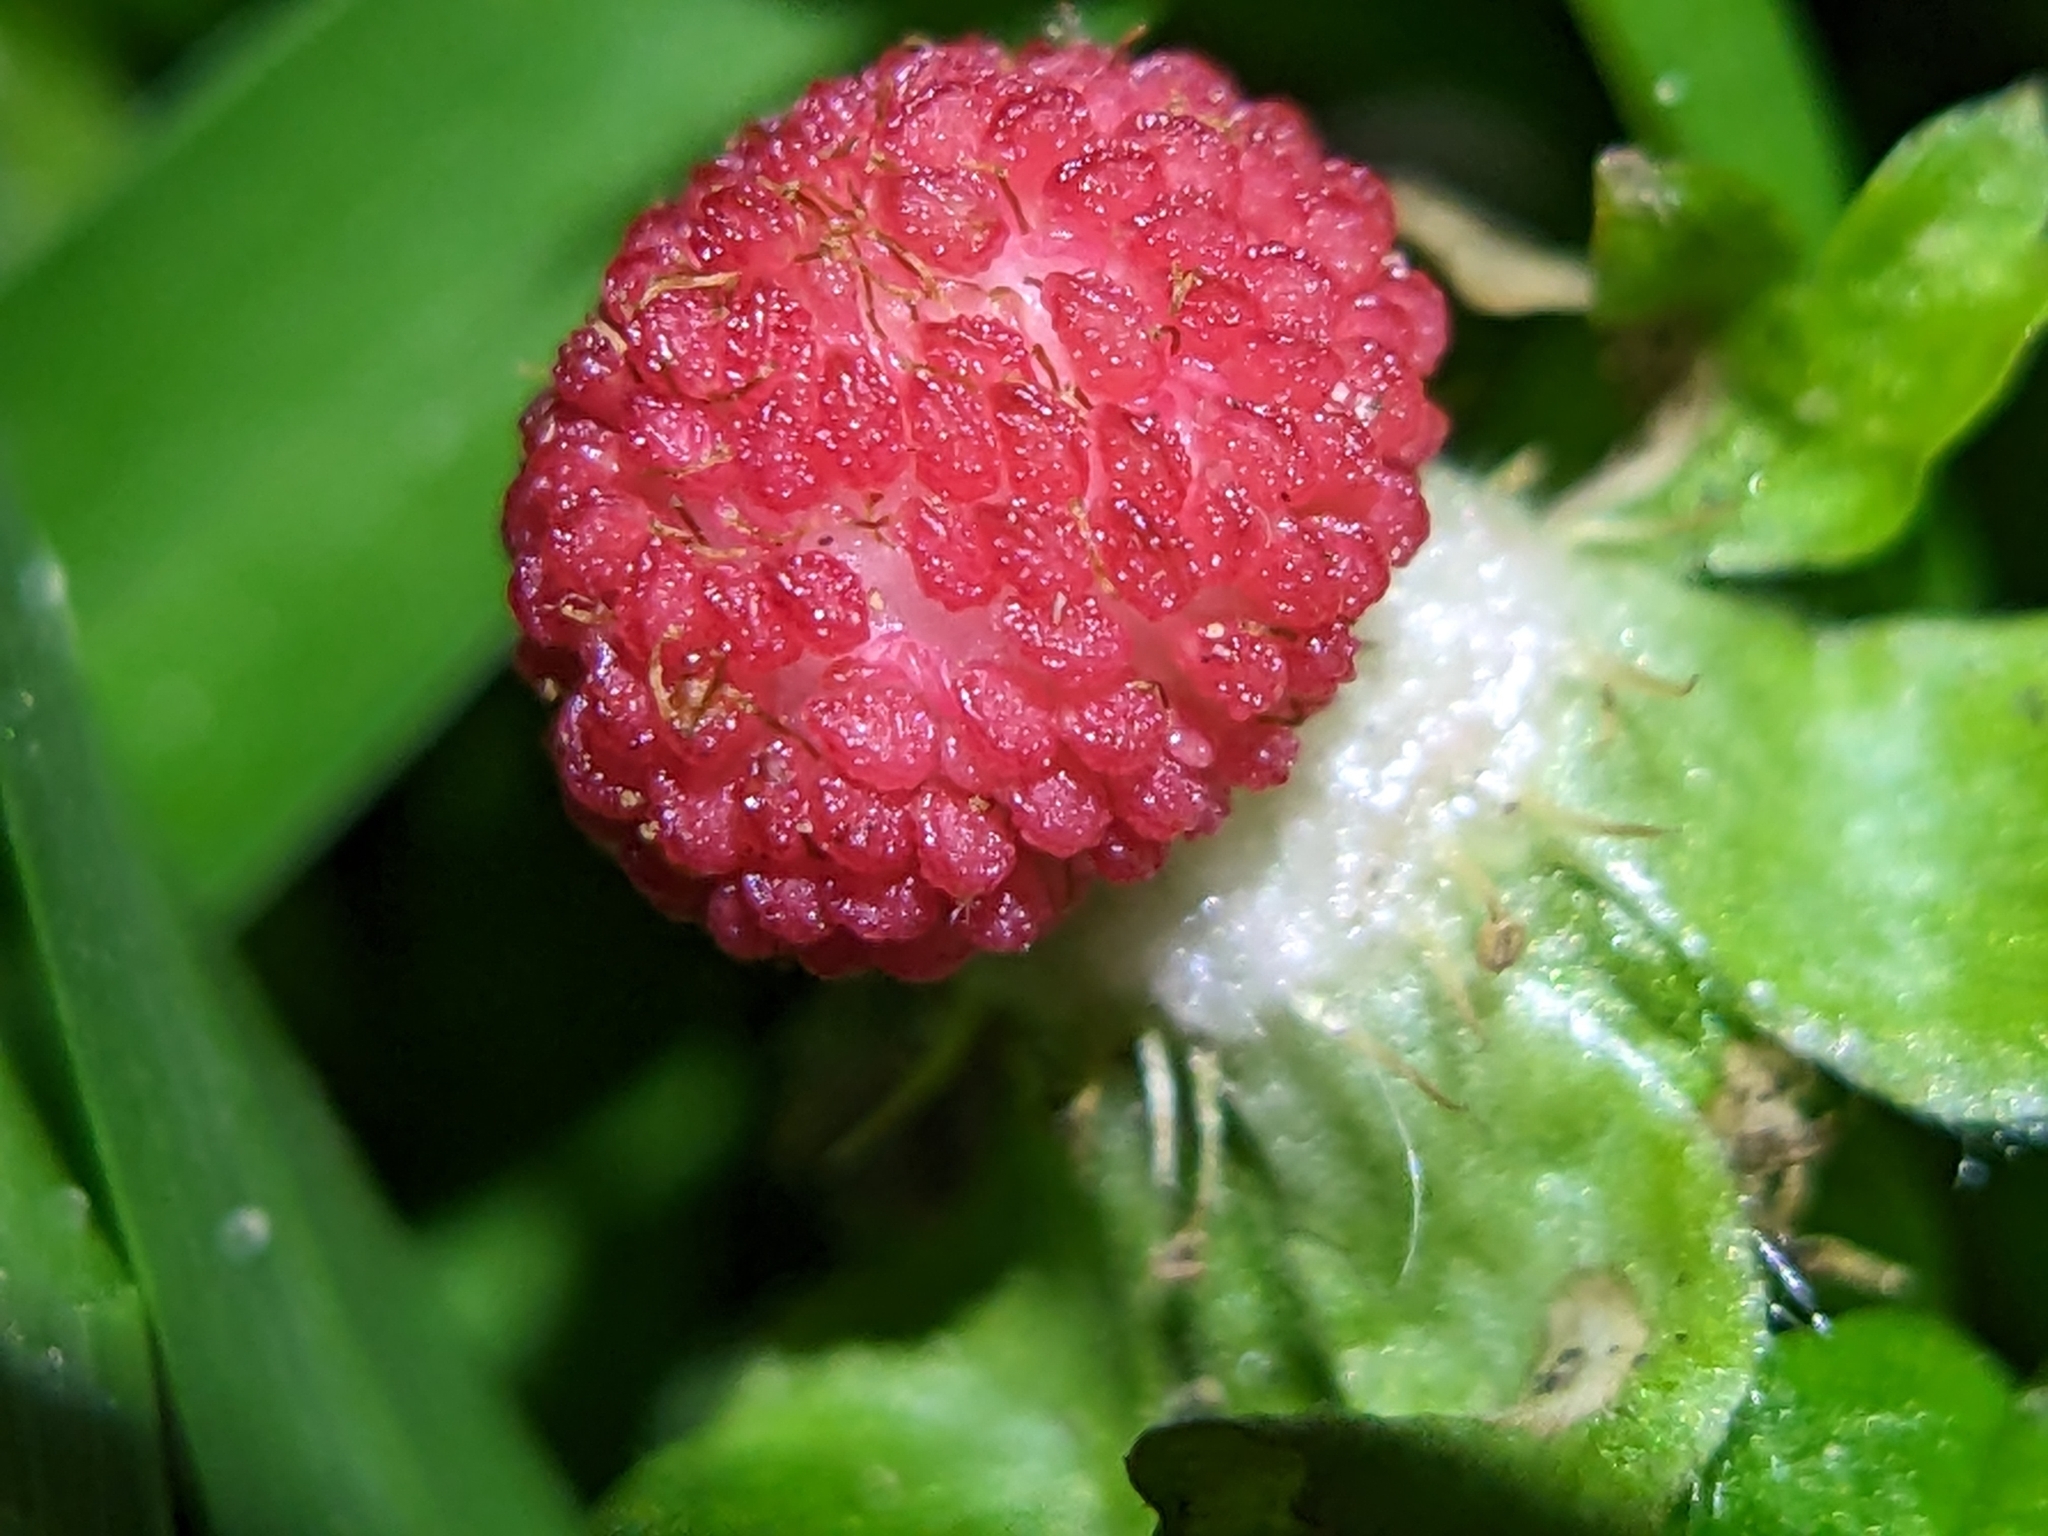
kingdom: Plantae
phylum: Tracheophyta
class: Magnoliopsida
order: Rosales
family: Rosaceae
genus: Potentilla
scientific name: Potentilla indica
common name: Yellow-flowered strawberry
